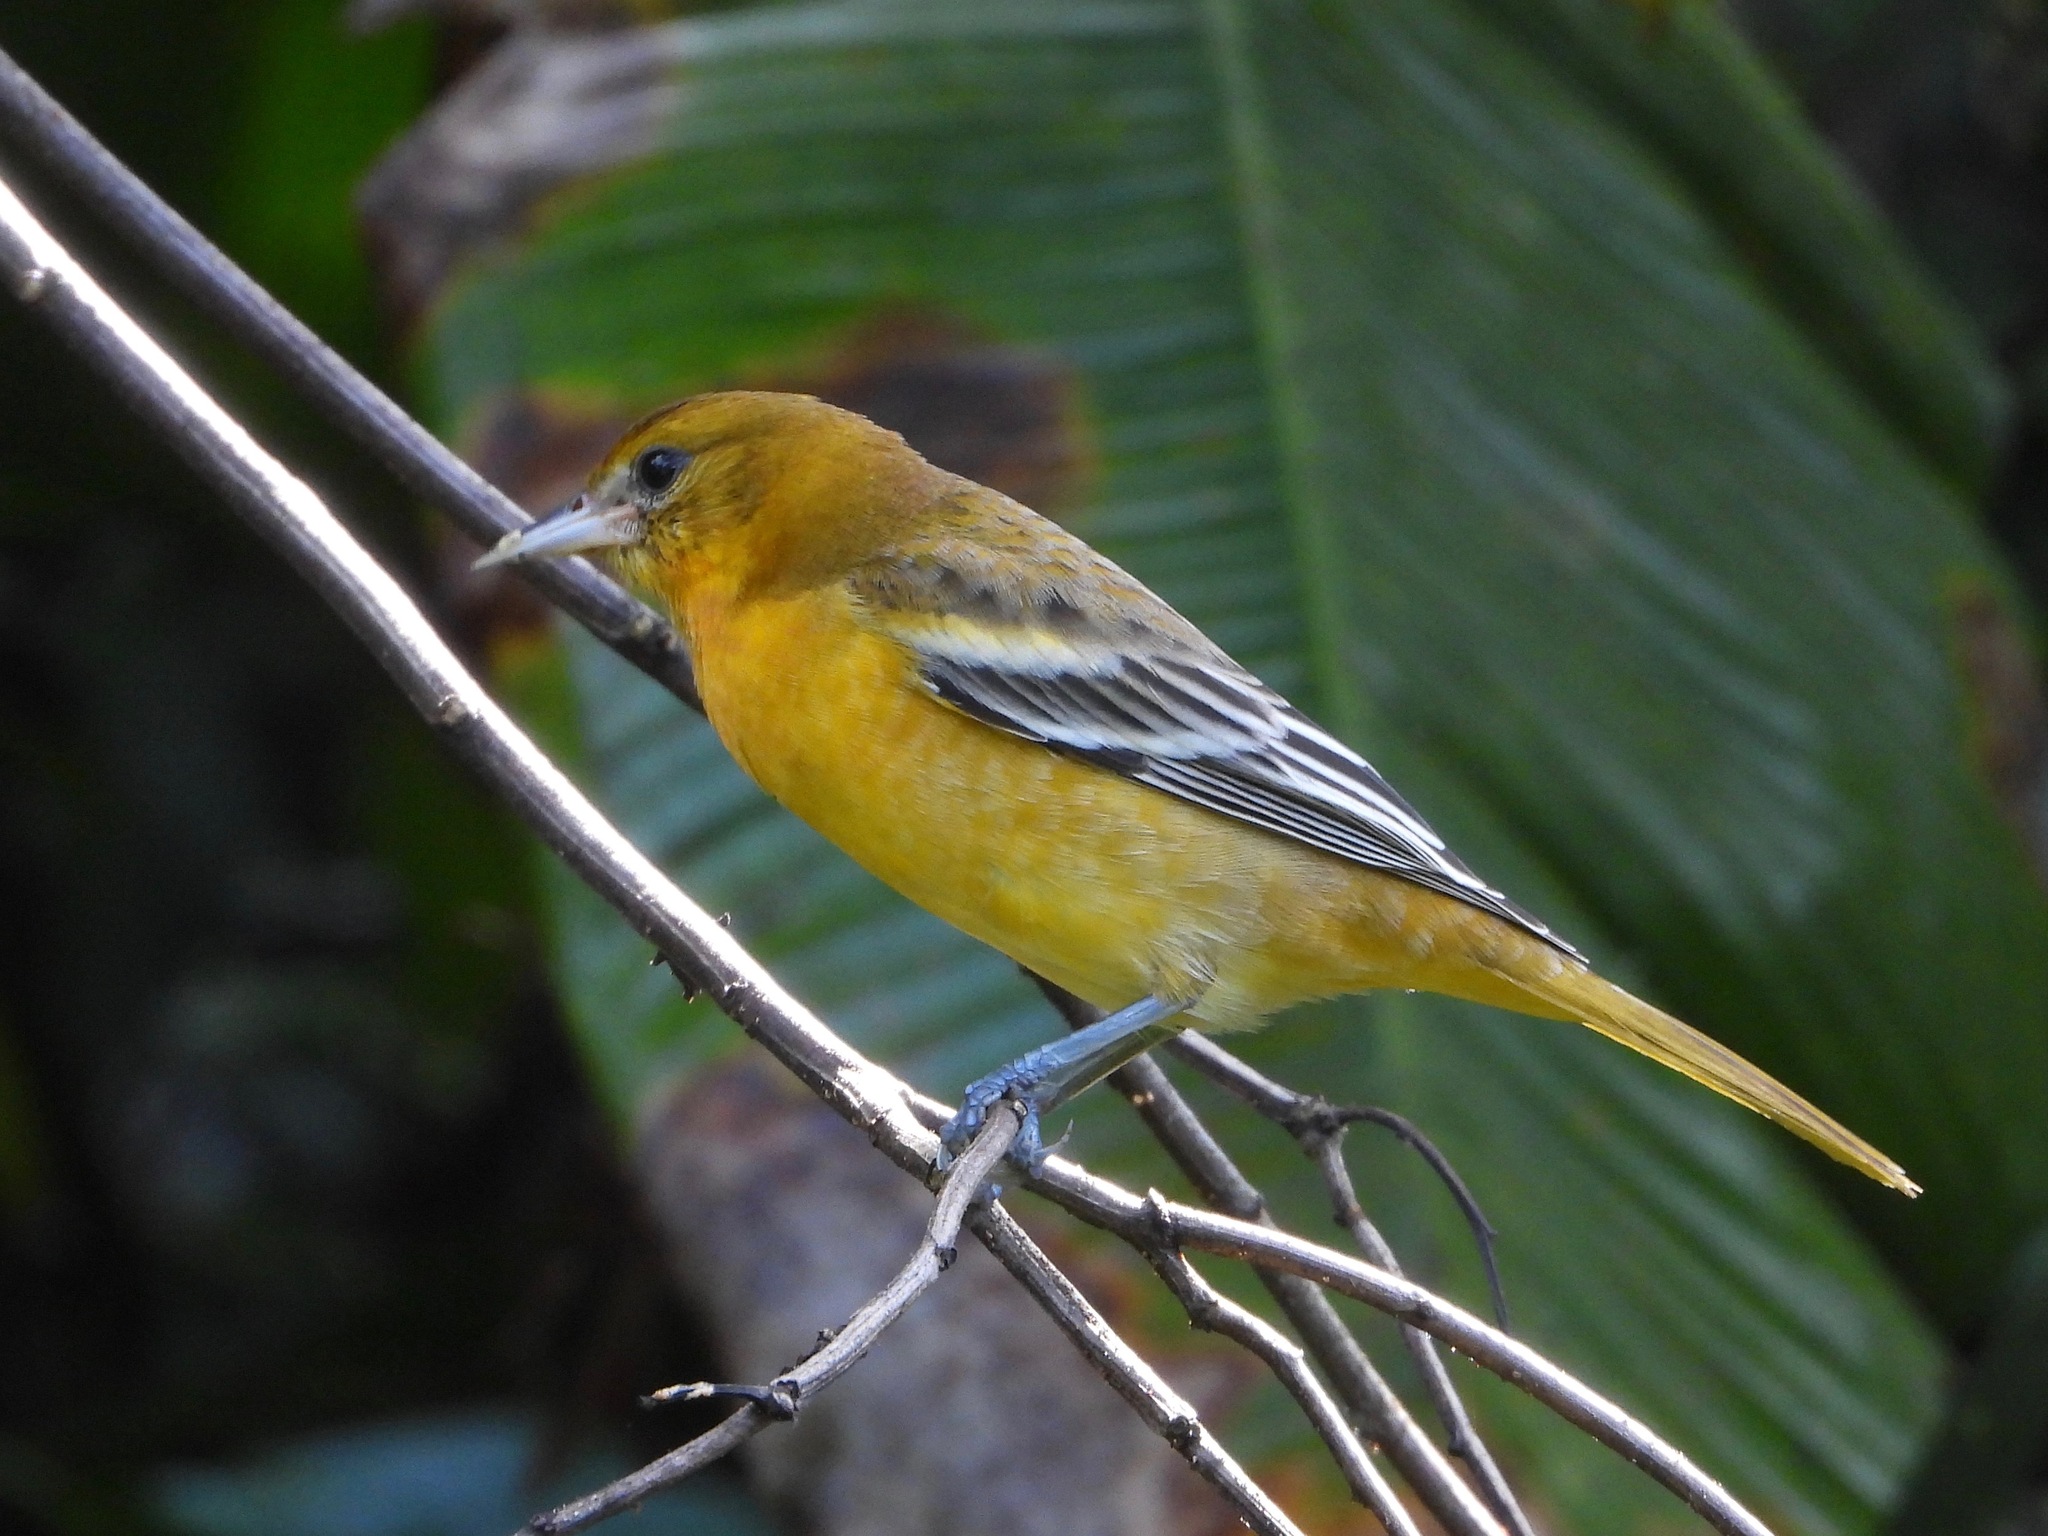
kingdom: Animalia
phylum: Chordata
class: Aves
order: Passeriformes
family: Icteridae
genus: Icterus
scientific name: Icterus galbula
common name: Baltimore oriole
